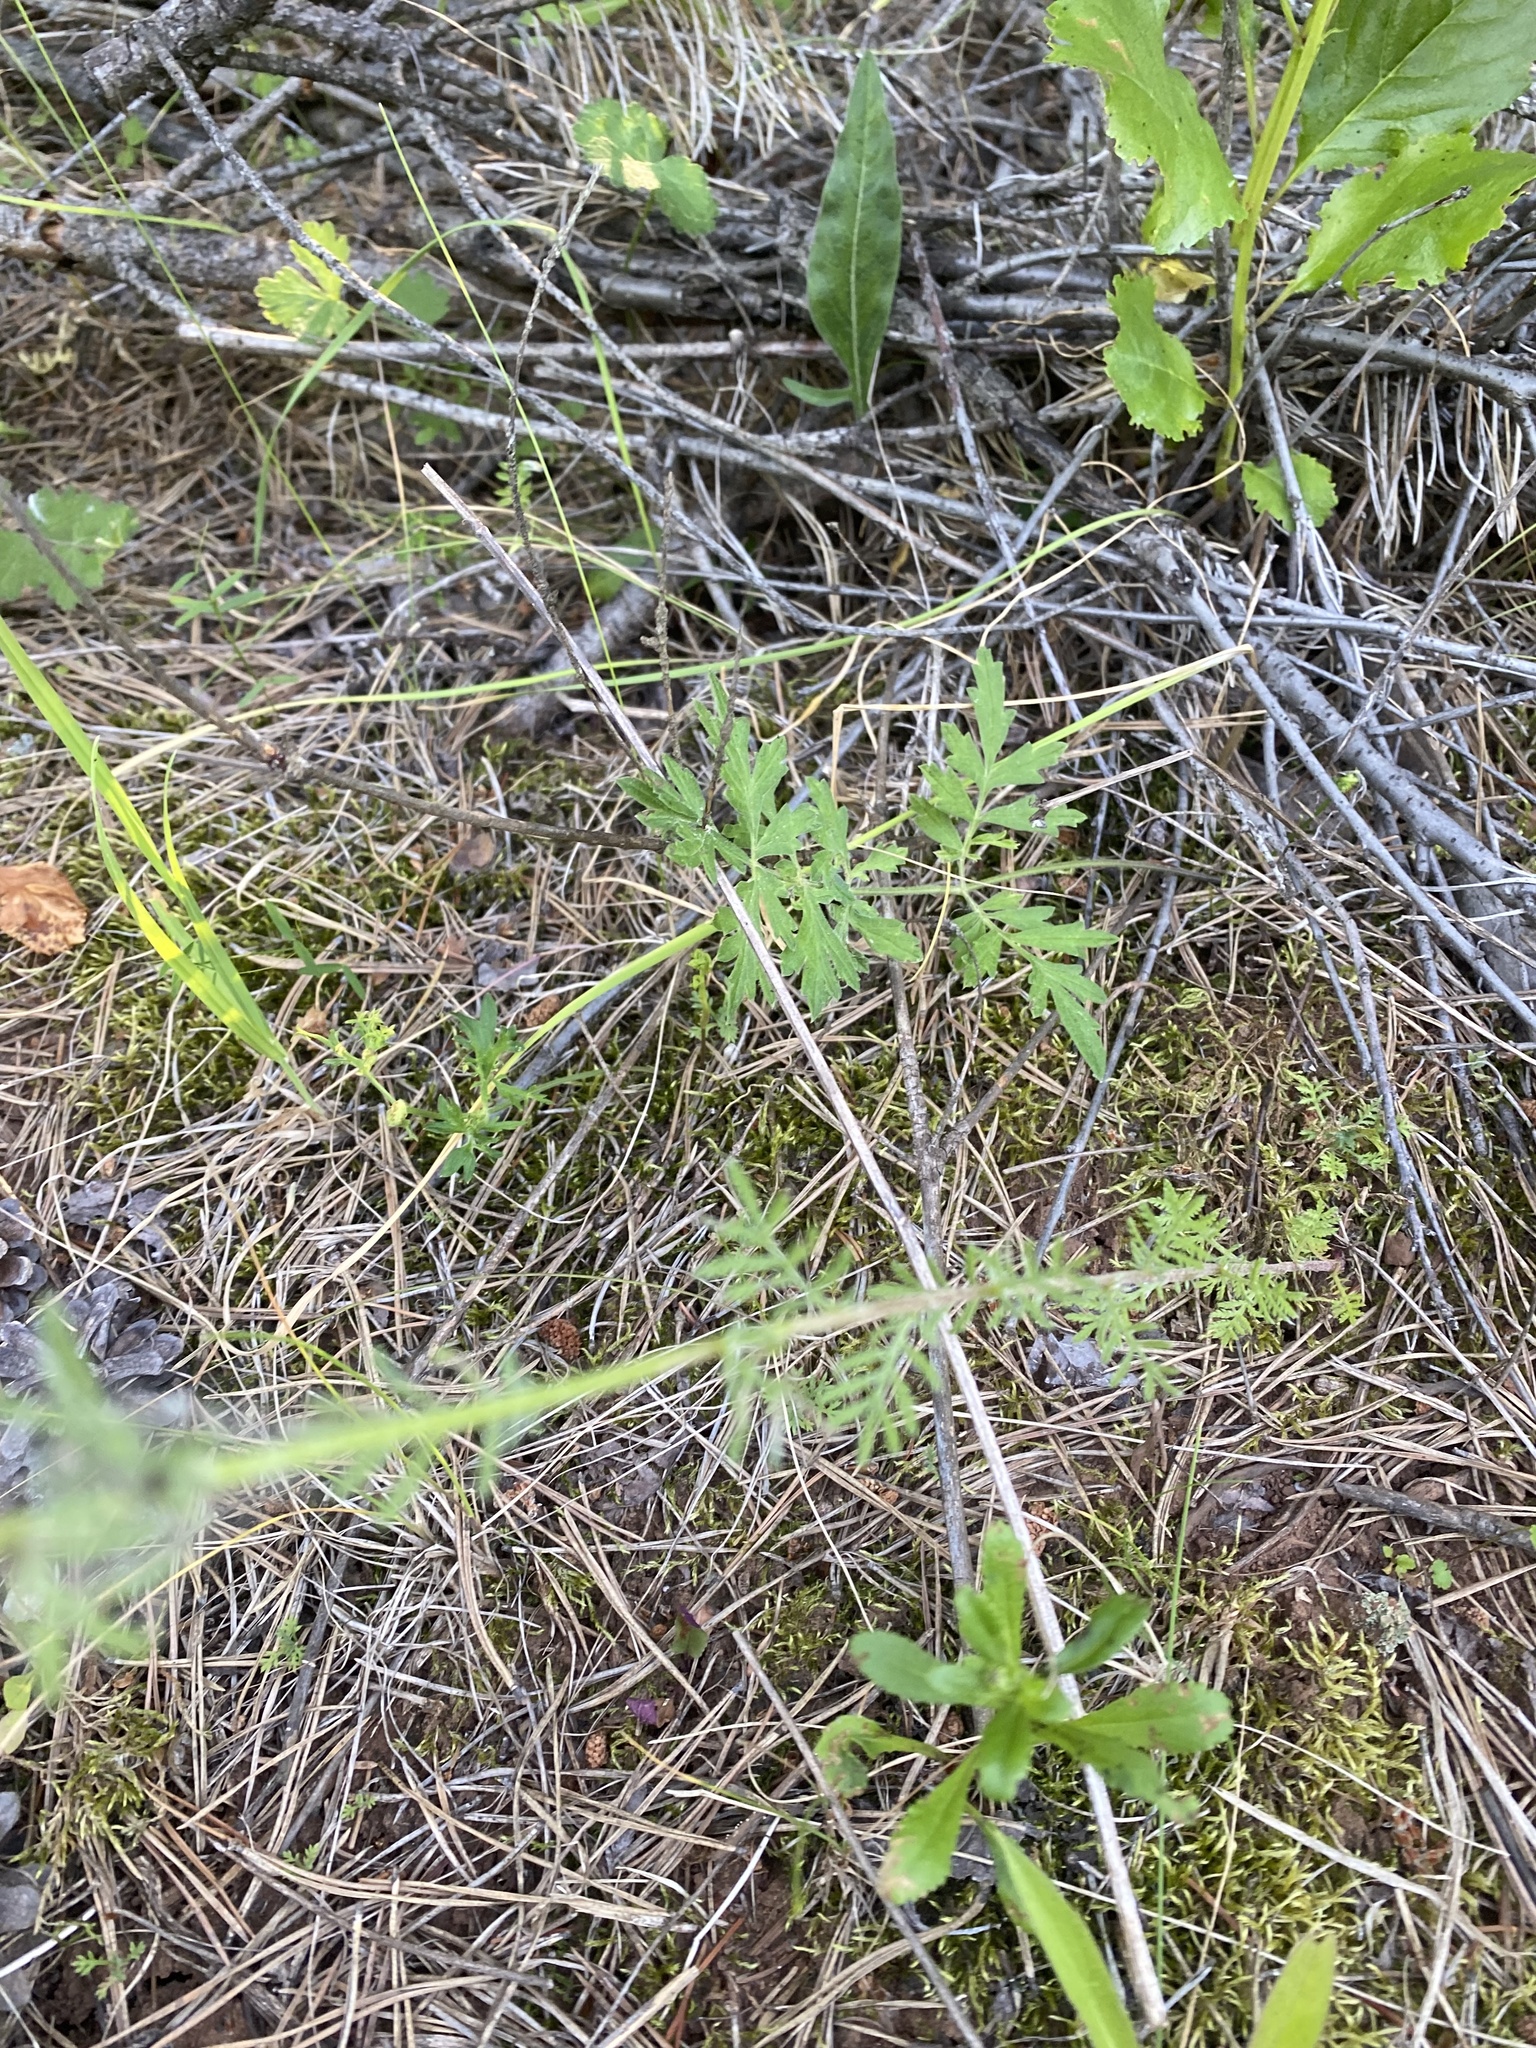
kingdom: Plantae
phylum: Tracheophyta
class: Magnoliopsida
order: Asterales
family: Asteraceae
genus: Cota
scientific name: Cota tinctoria
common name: Golden chamomile
